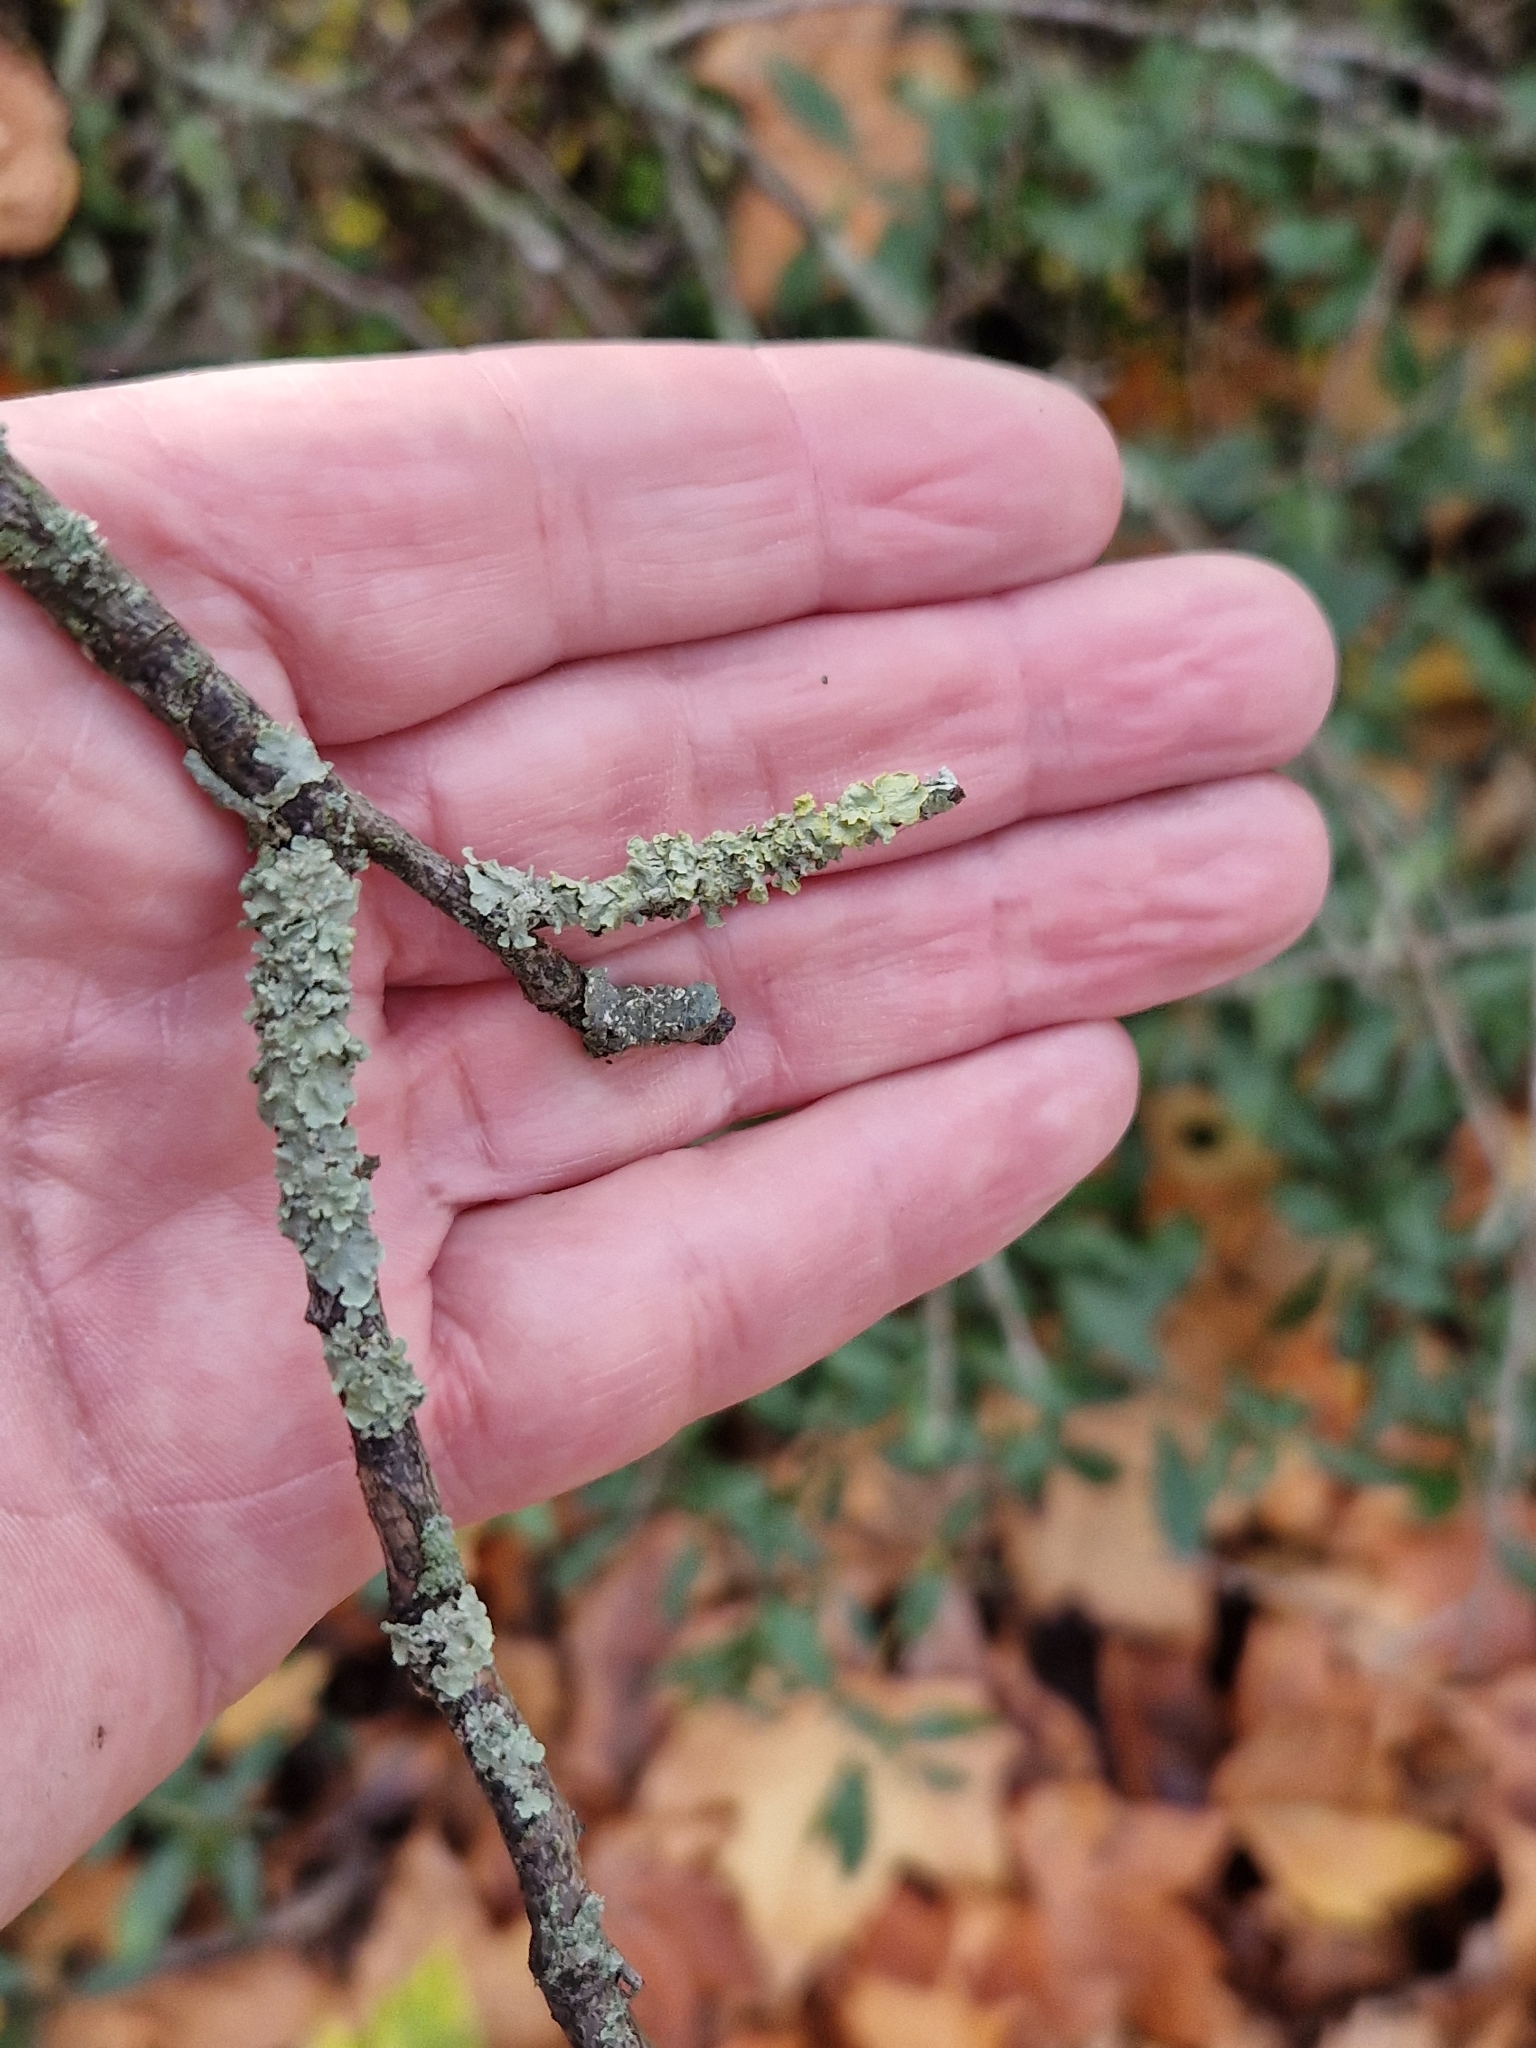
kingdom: Fungi
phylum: Ascomycota
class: Lecanoromycetes
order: Teloschistales
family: Teloschistaceae
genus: Xanthoria
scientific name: Xanthoria parietina
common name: Common orange lichen
